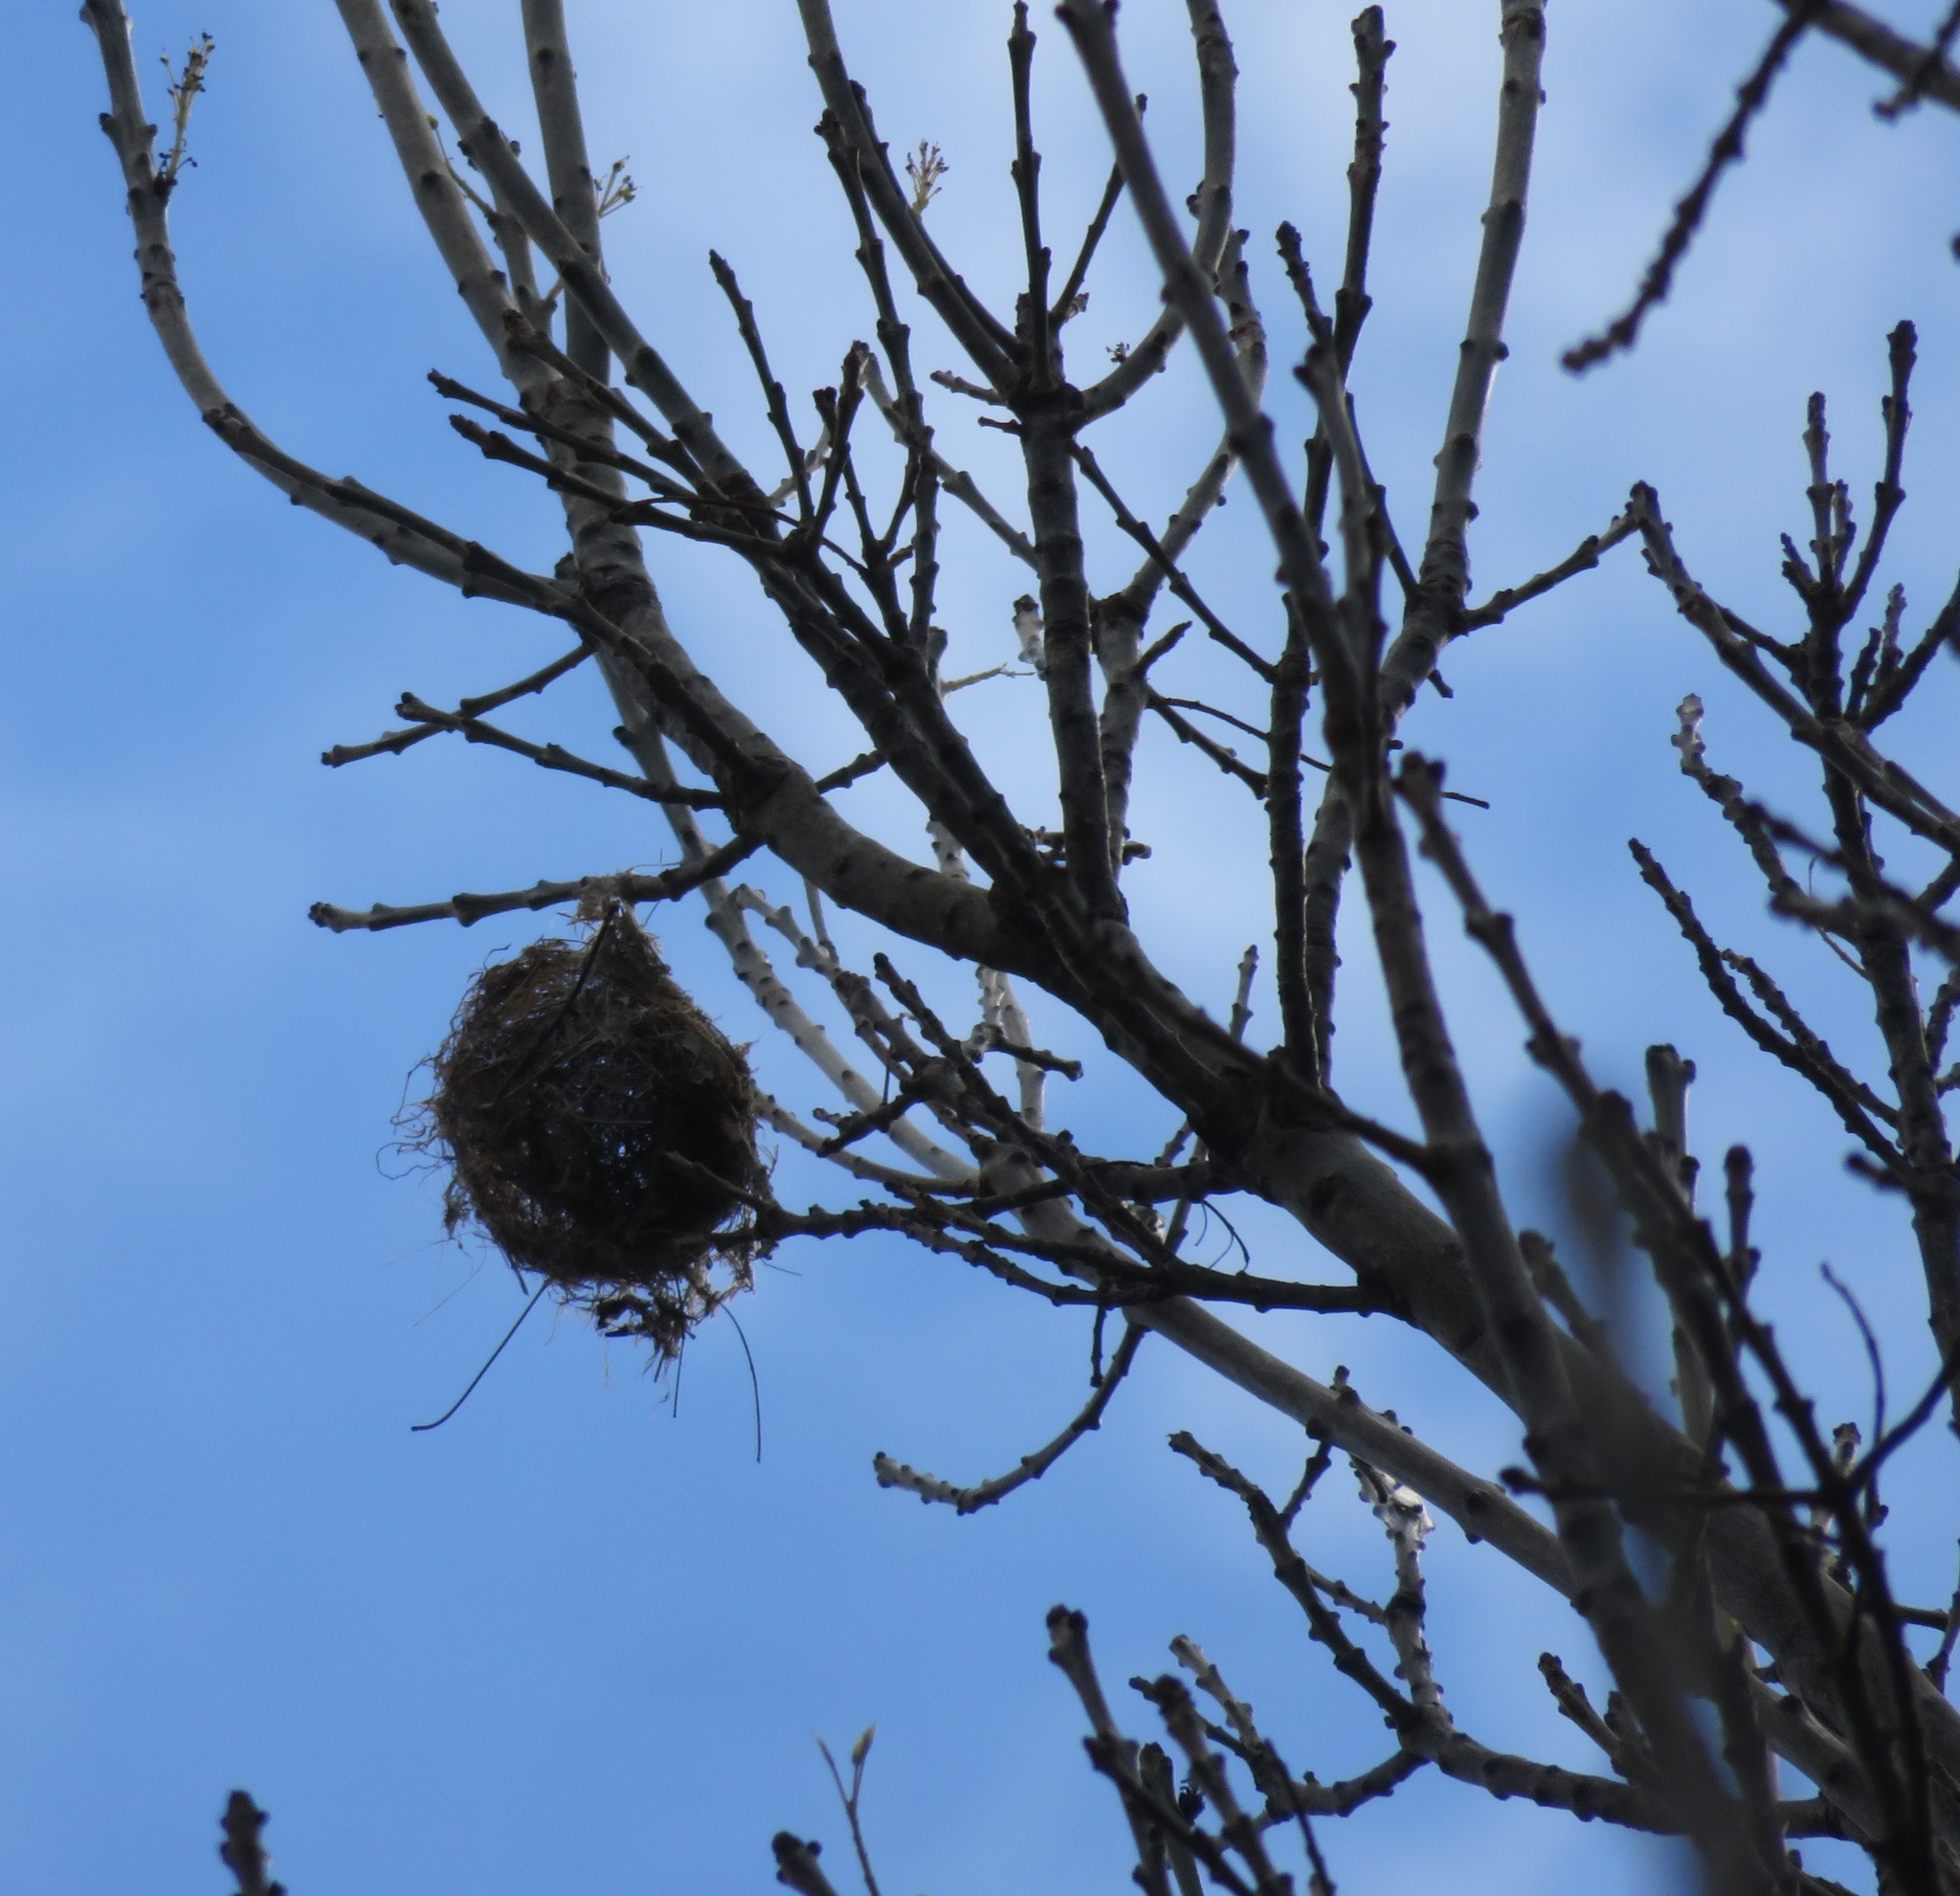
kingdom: Animalia
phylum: Chordata
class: Aves
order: Passeriformes
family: Zosteropidae
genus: Zosterops
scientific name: Zosterops lateralis
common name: Silvereye
